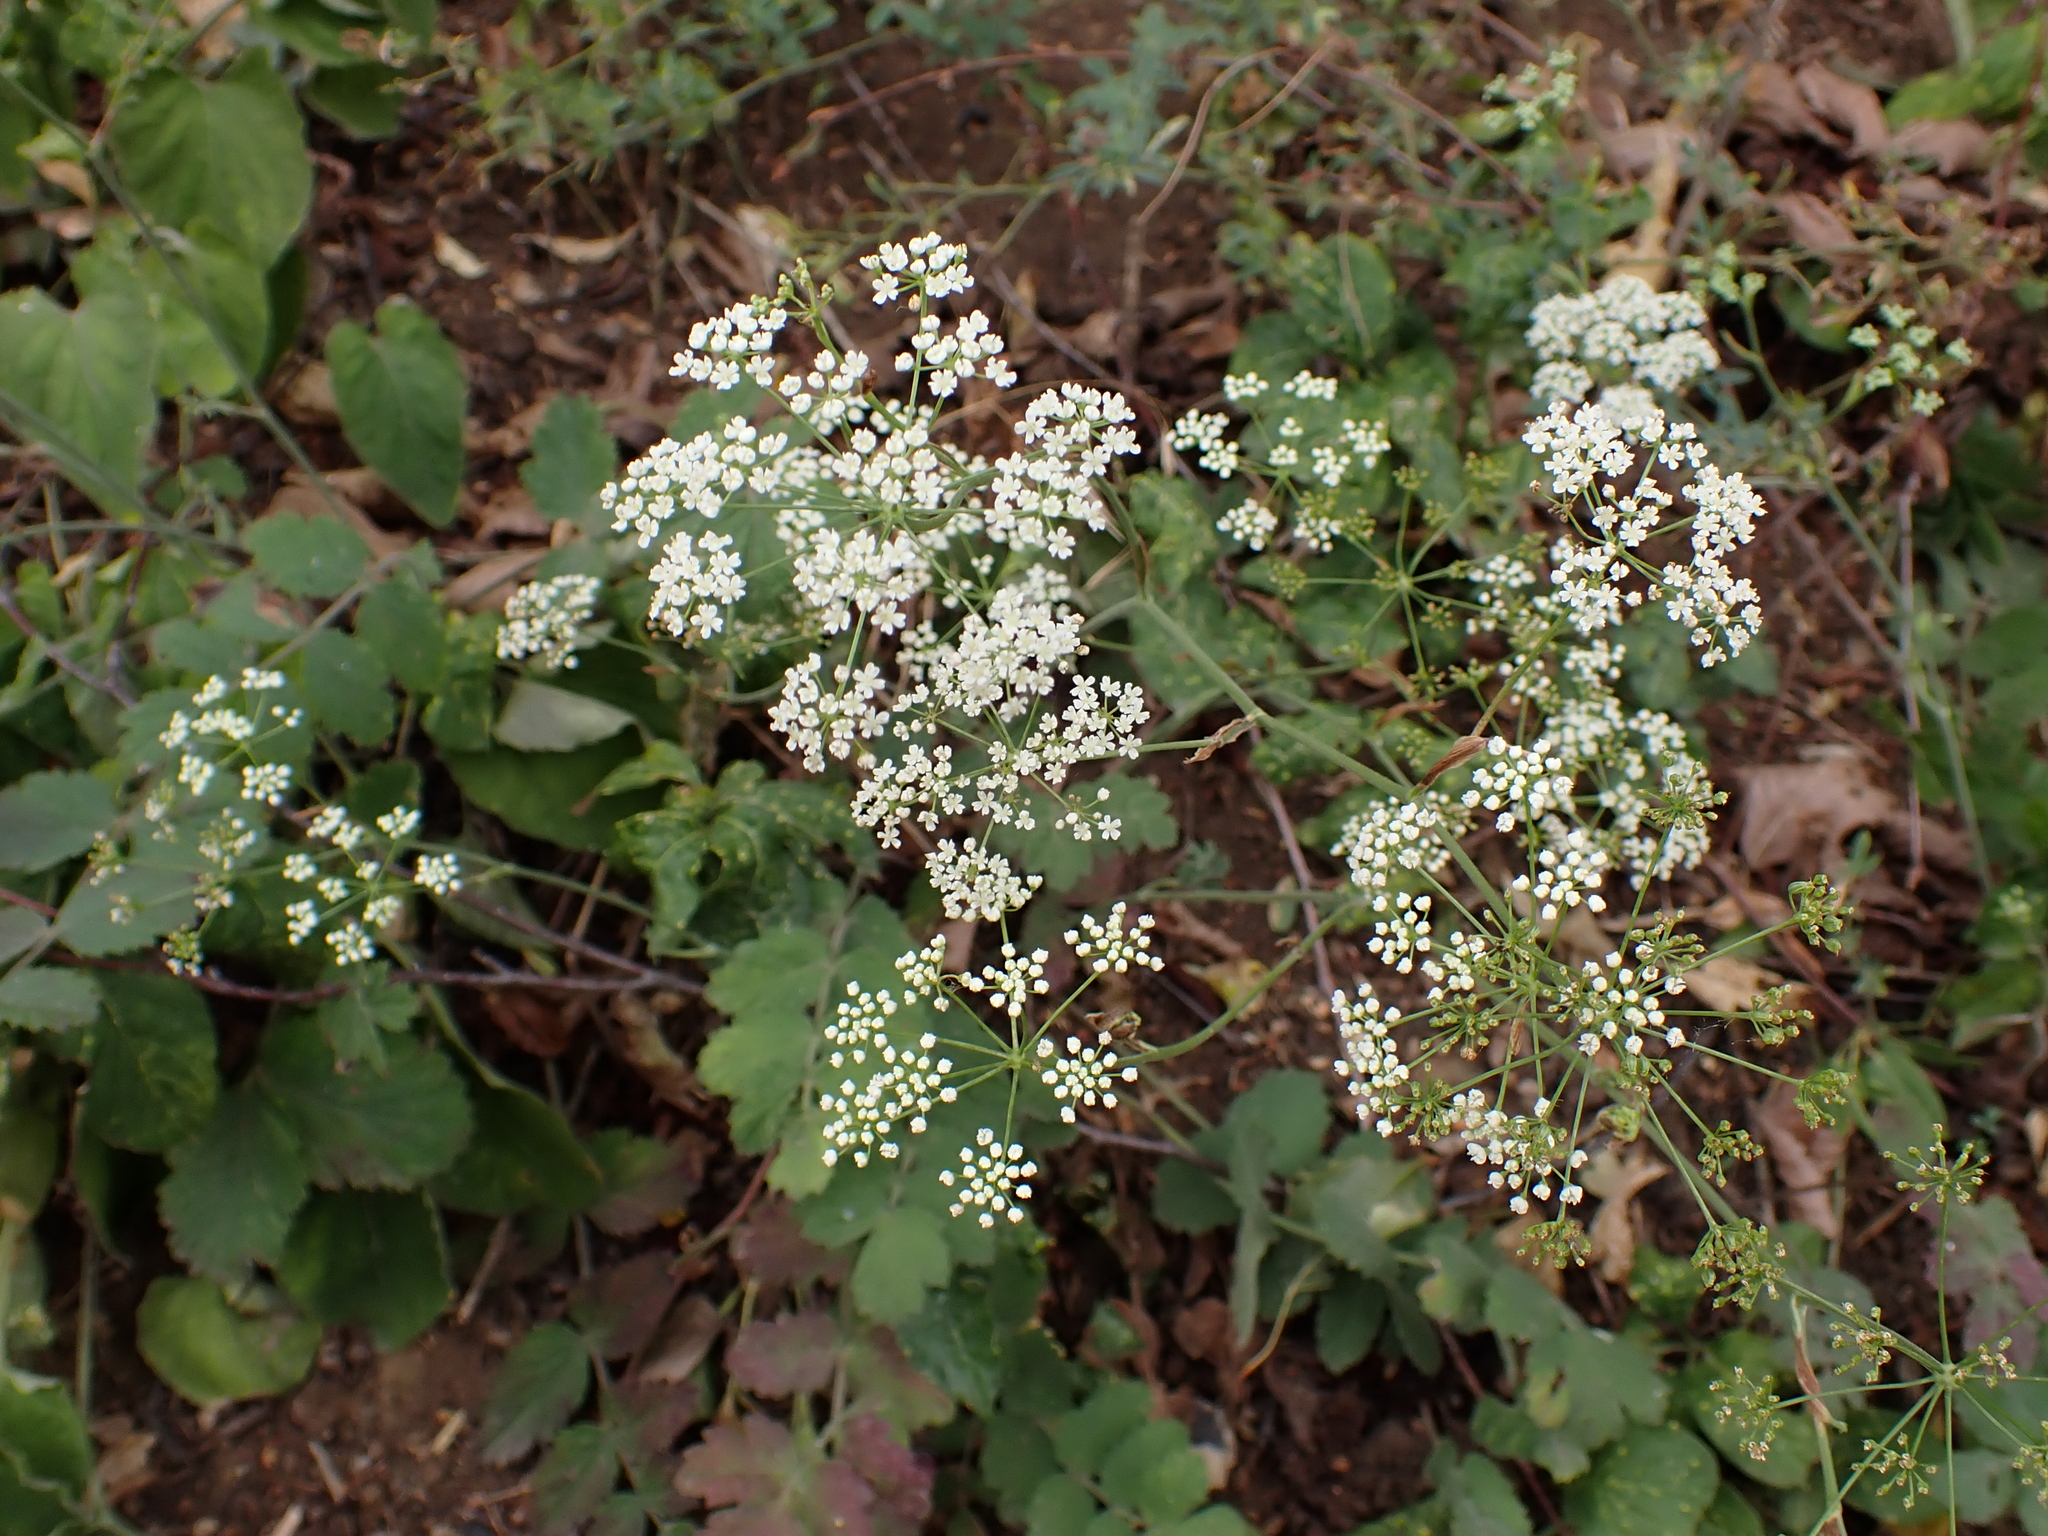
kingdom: Plantae
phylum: Tracheophyta
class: Magnoliopsida
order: Apiales
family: Apiaceae
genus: Pimpinella
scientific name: Pimpinella saxifraga
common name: Burnet-saxifrage
